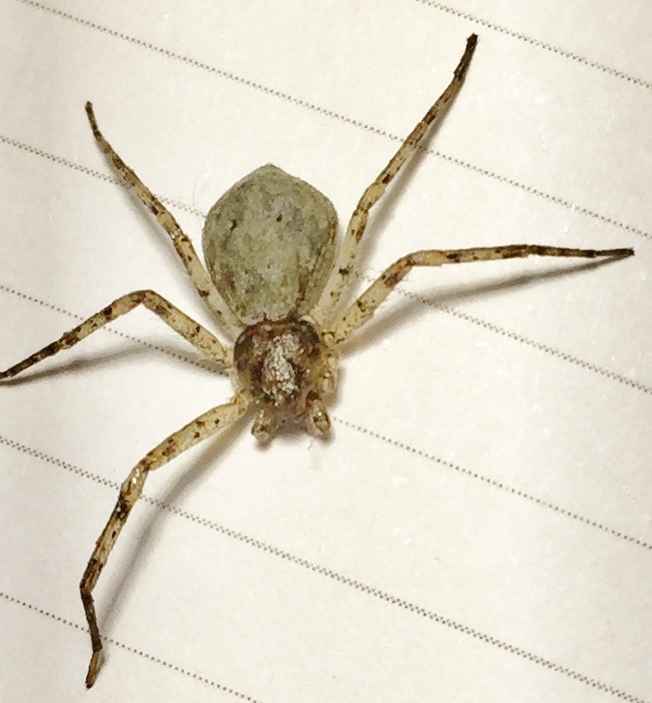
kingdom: Animalia
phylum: Arthropoda
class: Arachnida
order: Araneae
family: Philodromidae
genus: Philodromus
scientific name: Philodromus
